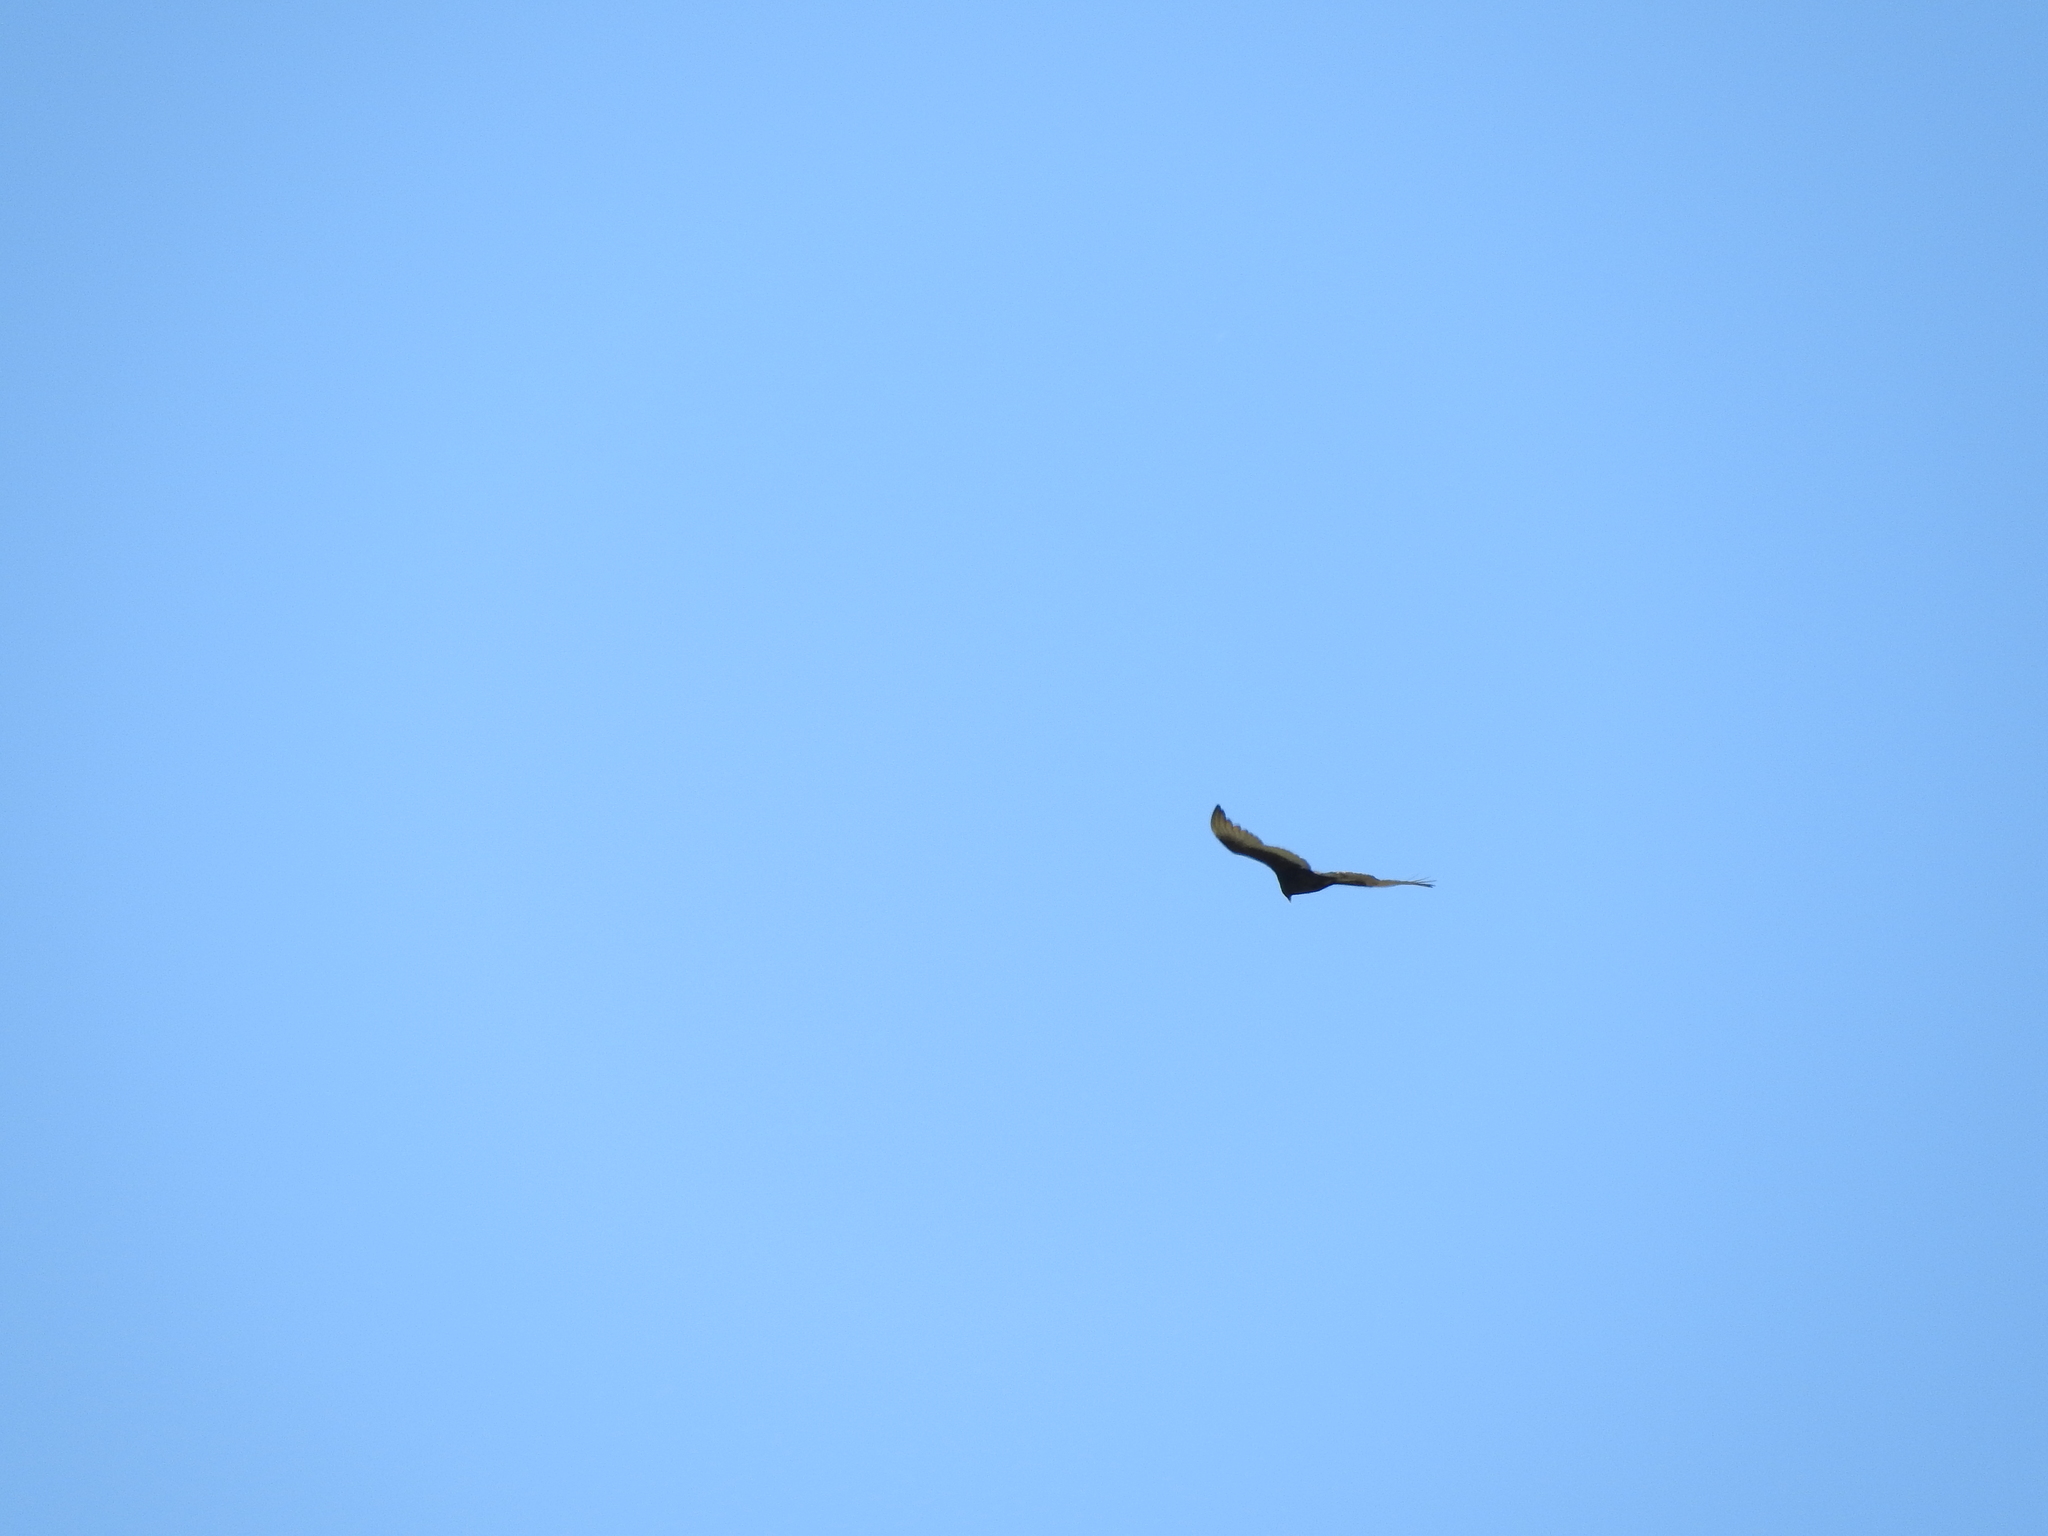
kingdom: Animalia
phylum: Chordata
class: Aves
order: Accipitriformes
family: Cathartidae
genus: Cathartes
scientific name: Cathartes aura
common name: Turkey vulture
